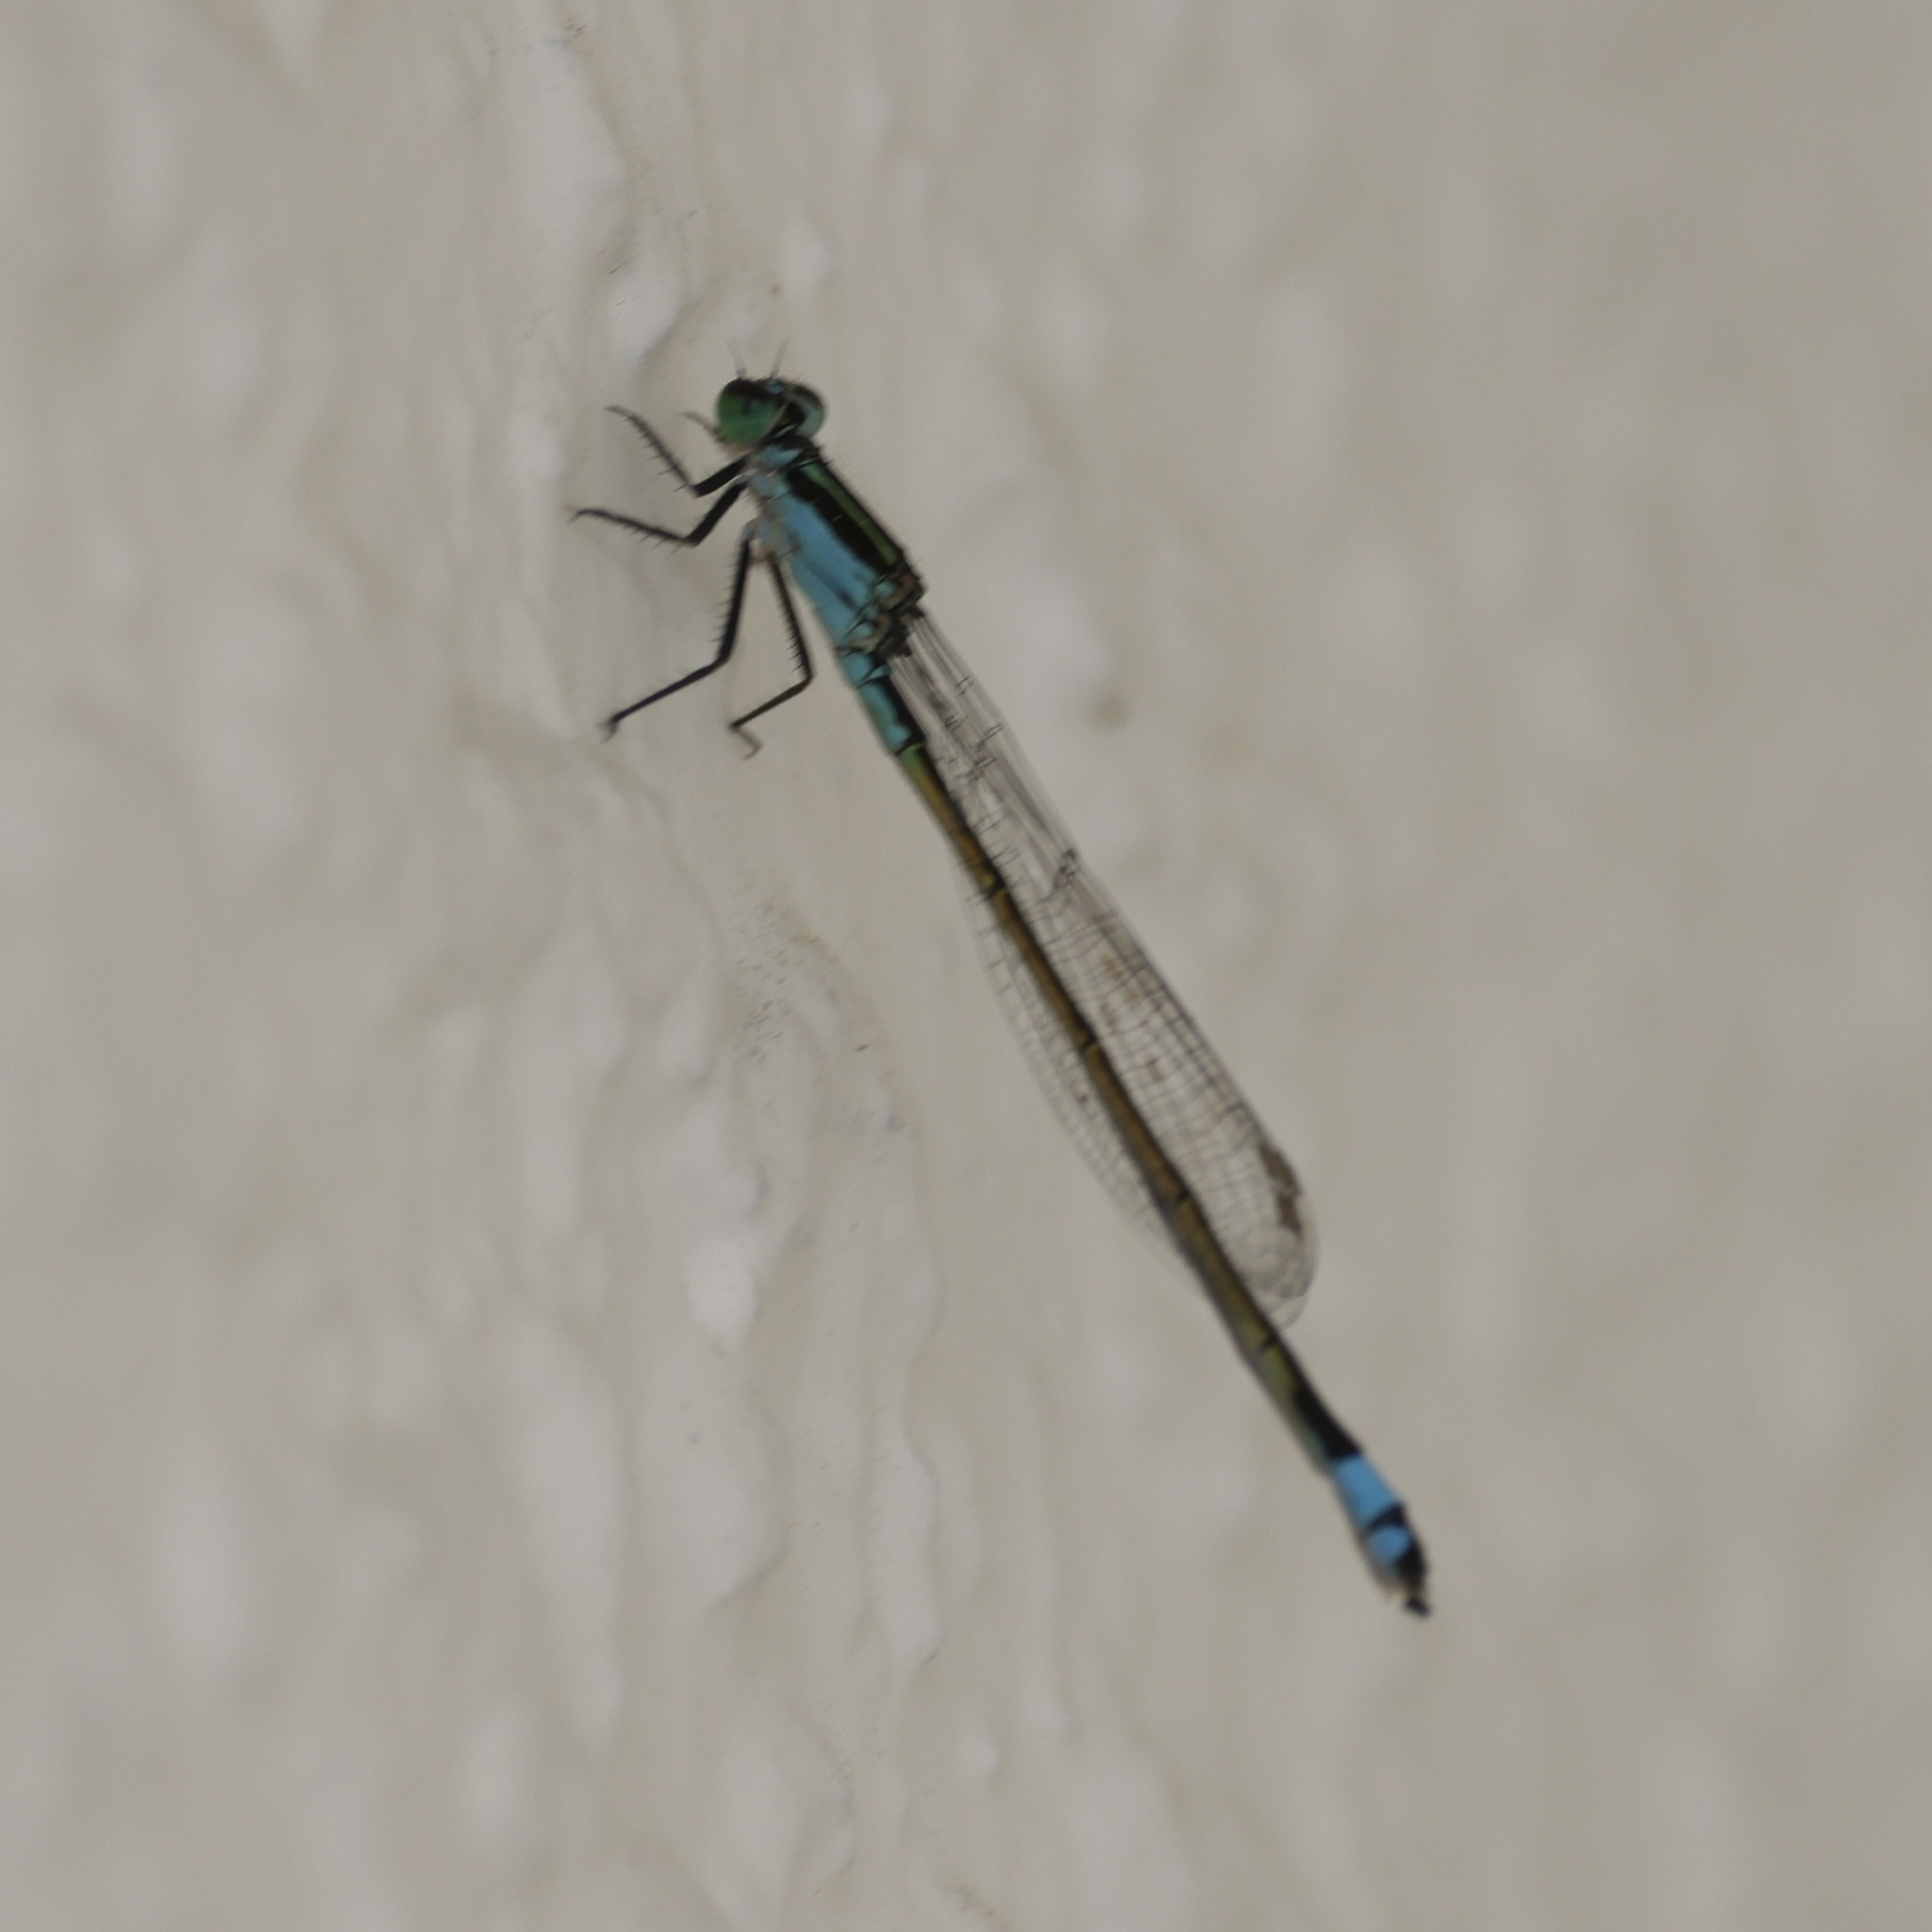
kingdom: Animalia
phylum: Arthropoda
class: Insecta
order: Odonata
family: Coenagrionidae
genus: Ischnura
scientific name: Ischnura ramburii
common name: Rambur's forktail
